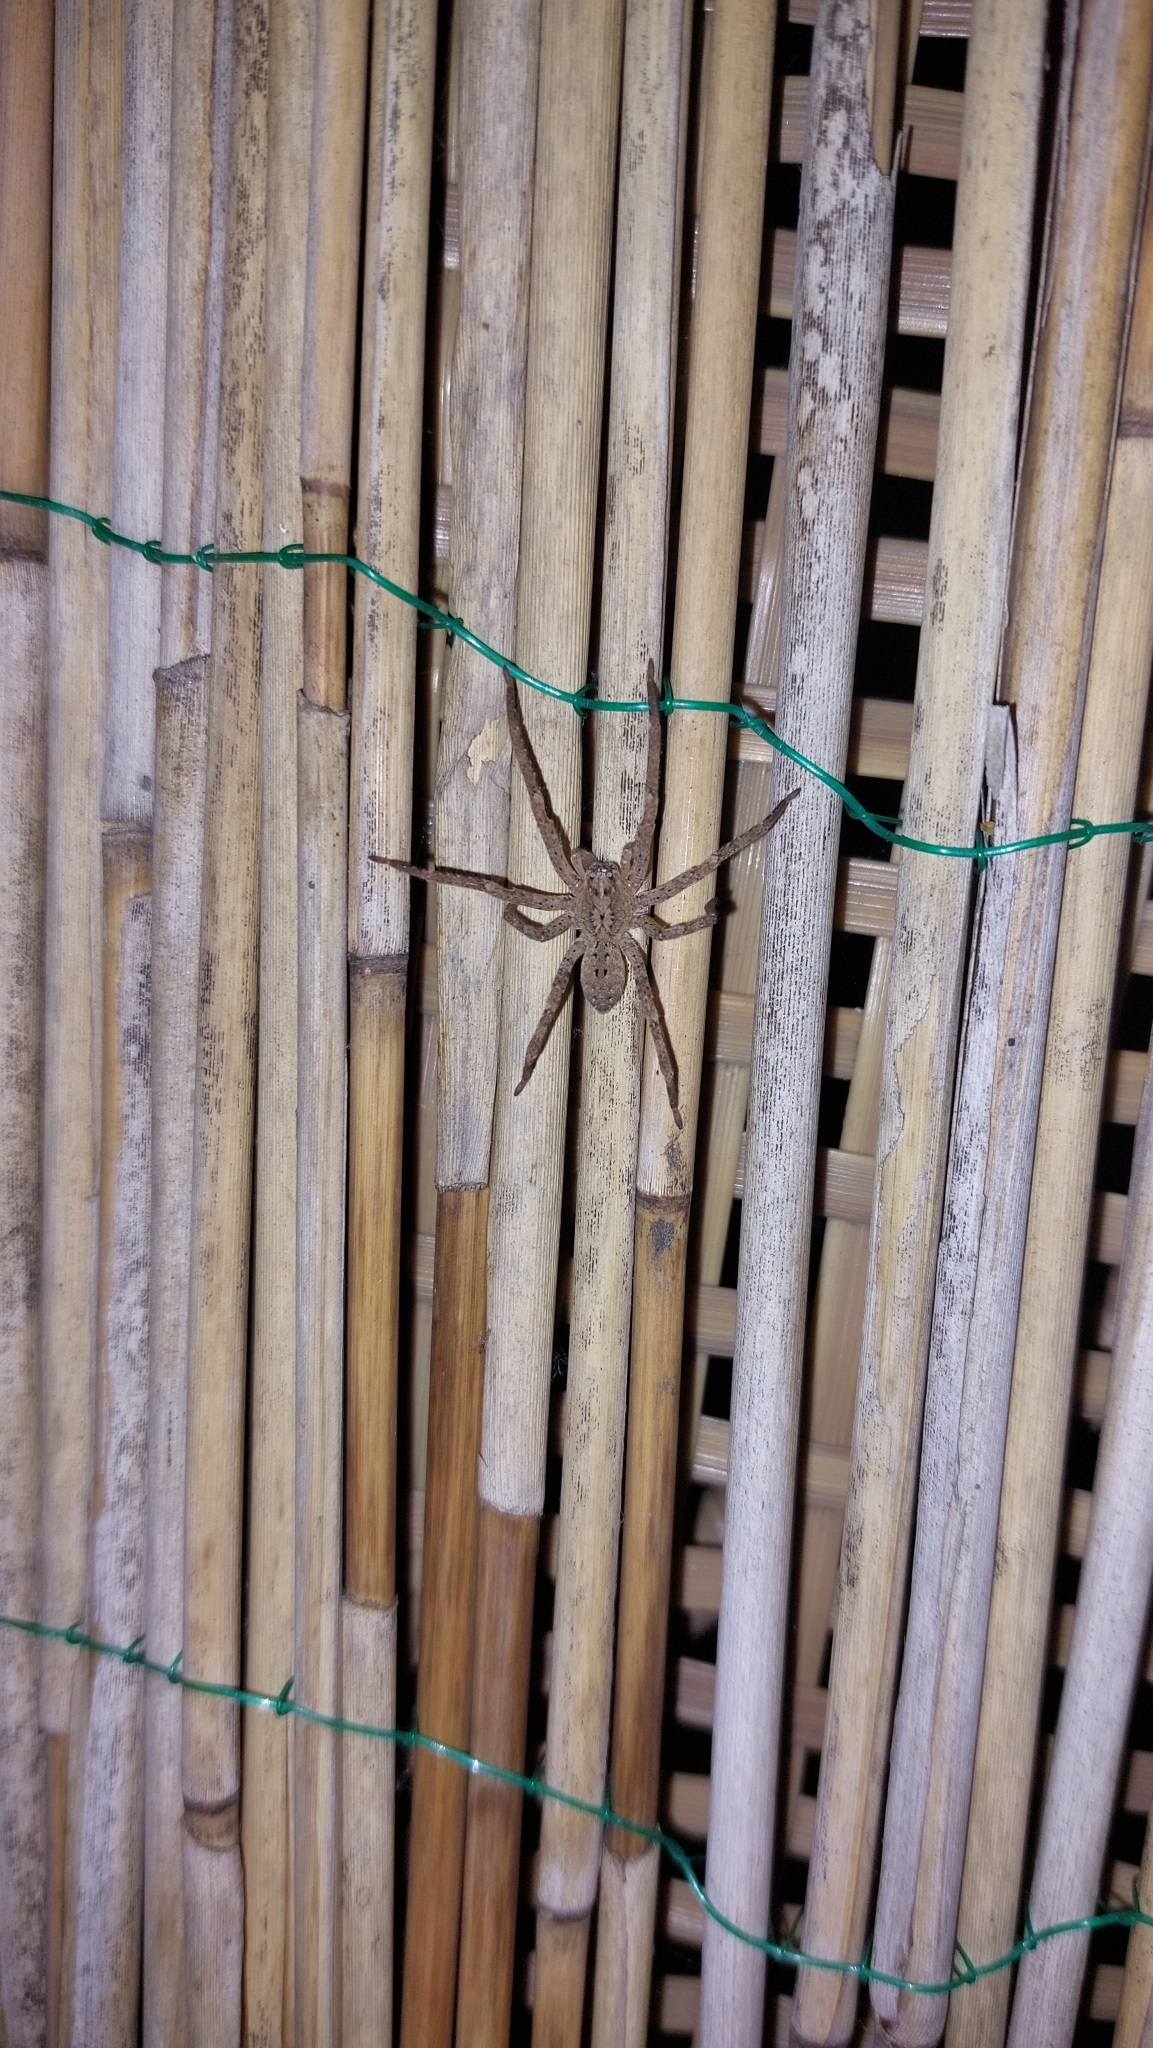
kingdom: Animalia
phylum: Arthropoda
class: Arachnida
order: Araneae
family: Zoropsidae
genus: Zoropsis
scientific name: Zoropsis spinimana
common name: Zoropsid spider
